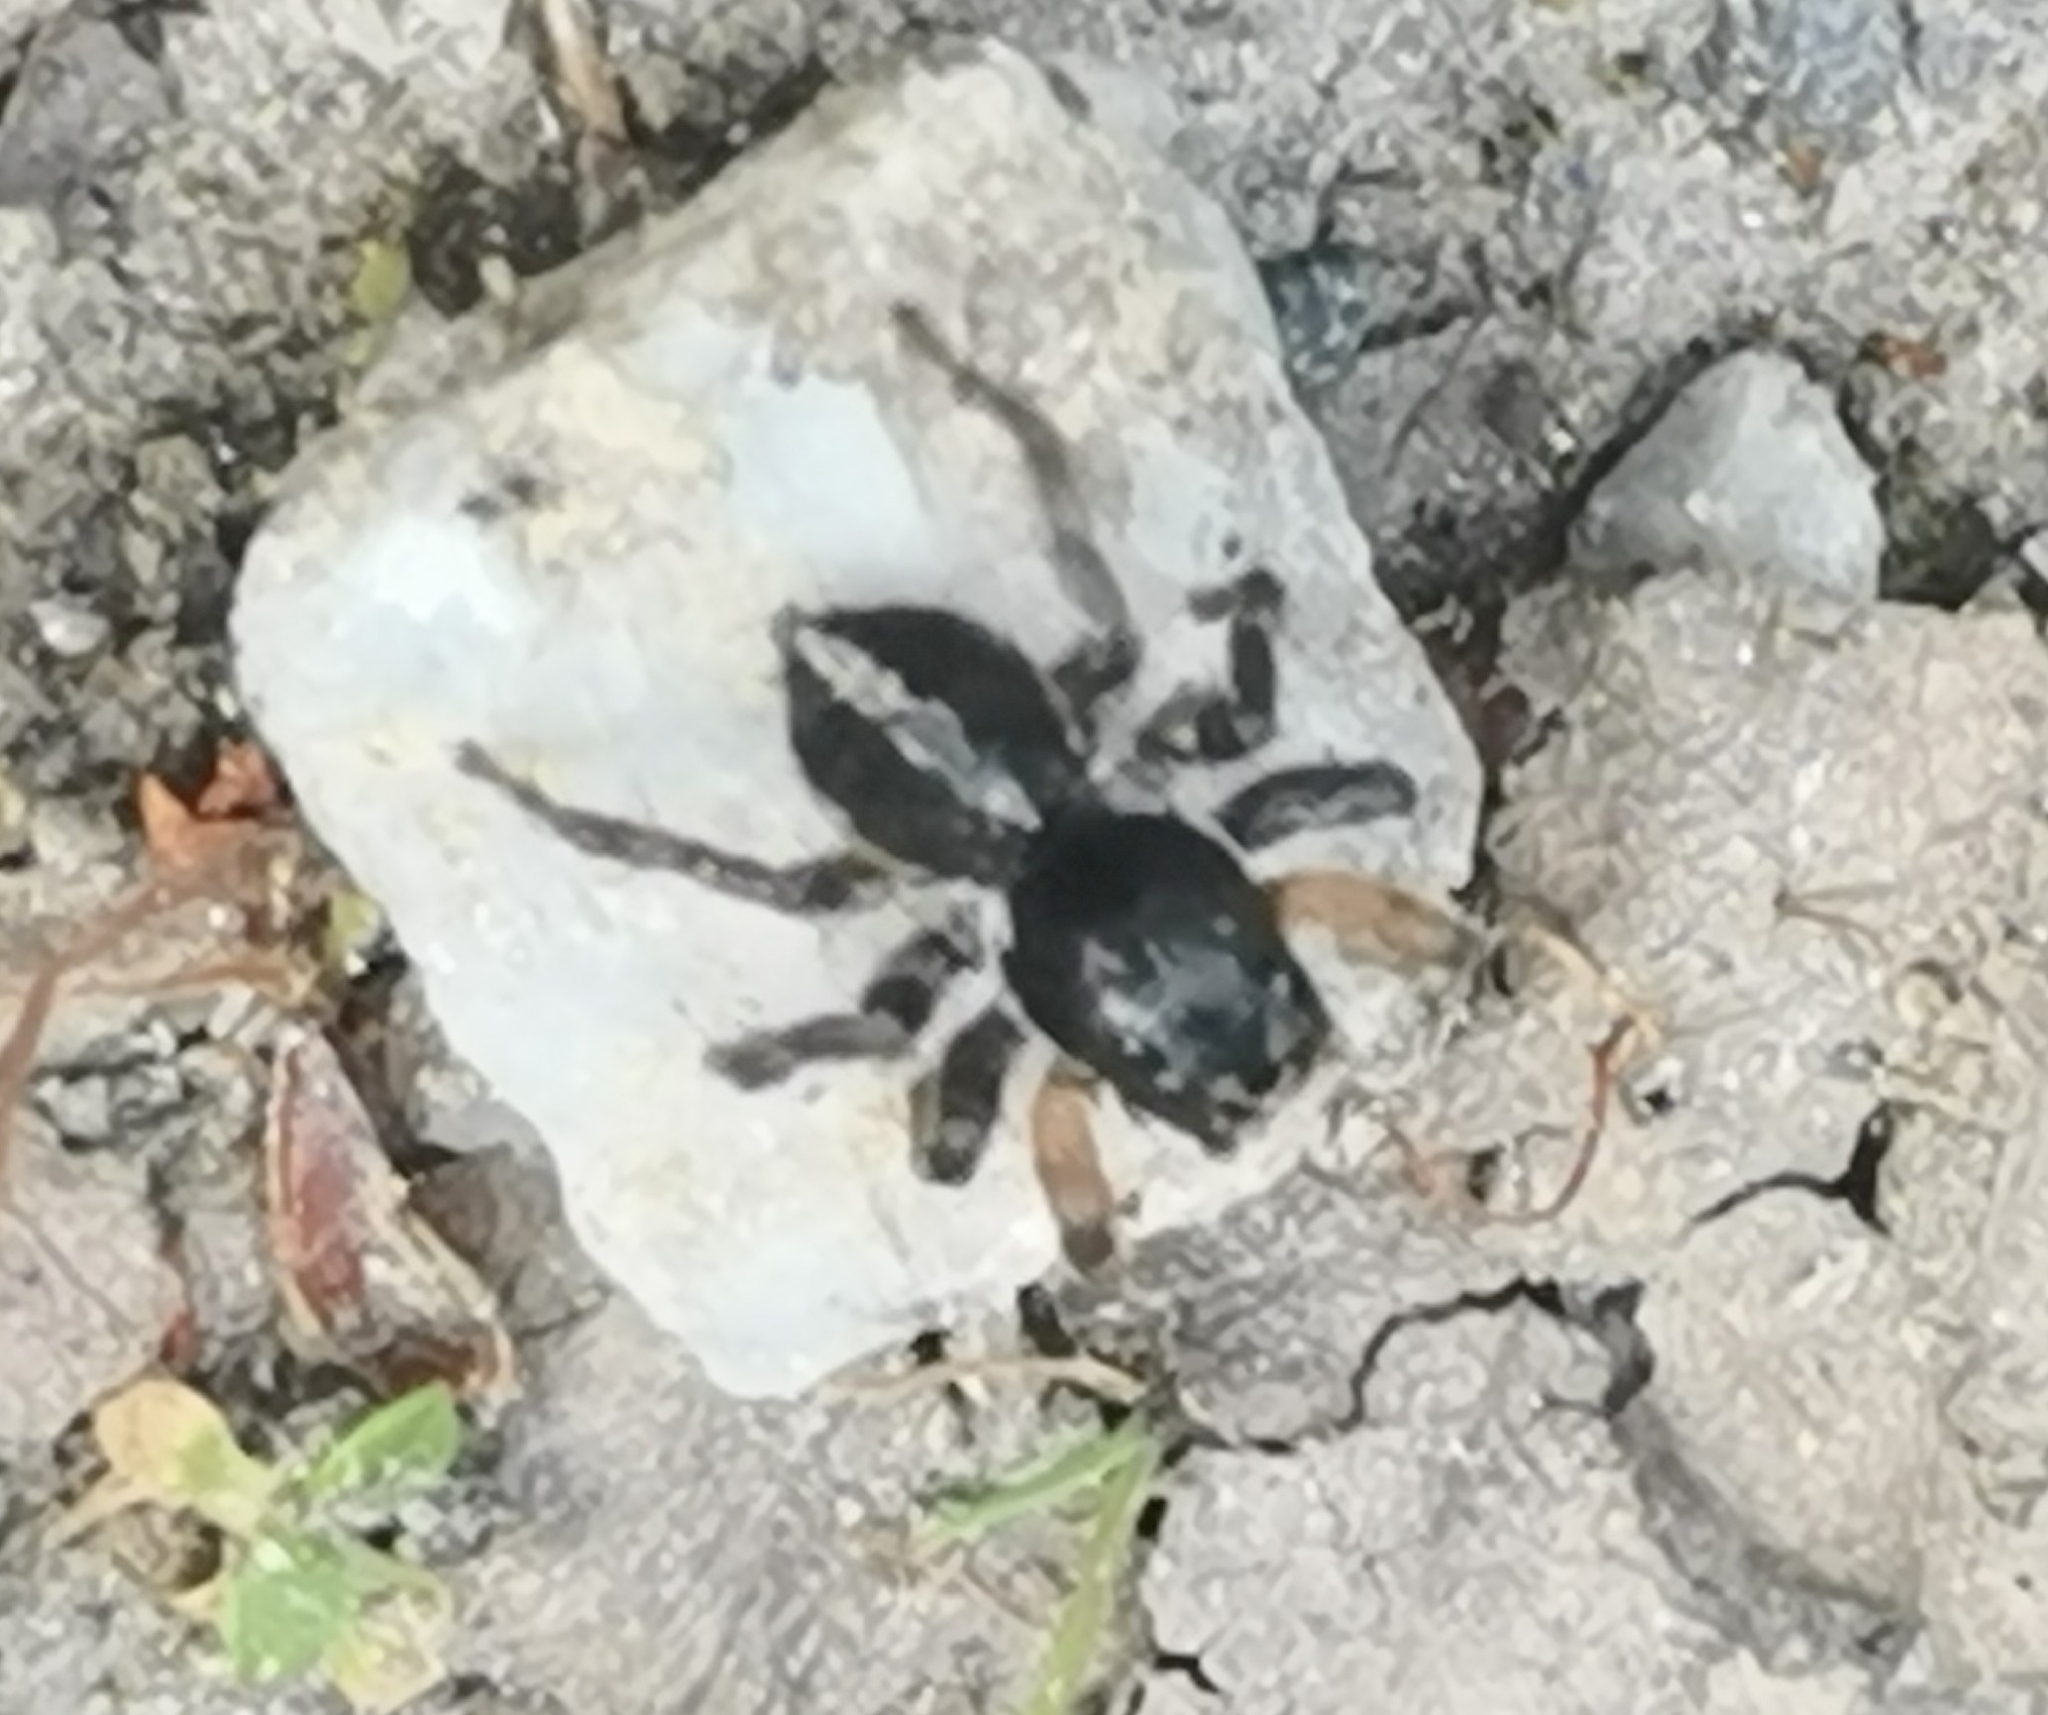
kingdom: Animalia
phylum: Arthropoda
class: Arachnida
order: Araneae
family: Salticidae
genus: Aelurillus
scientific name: Aelurillus v-insignitus
